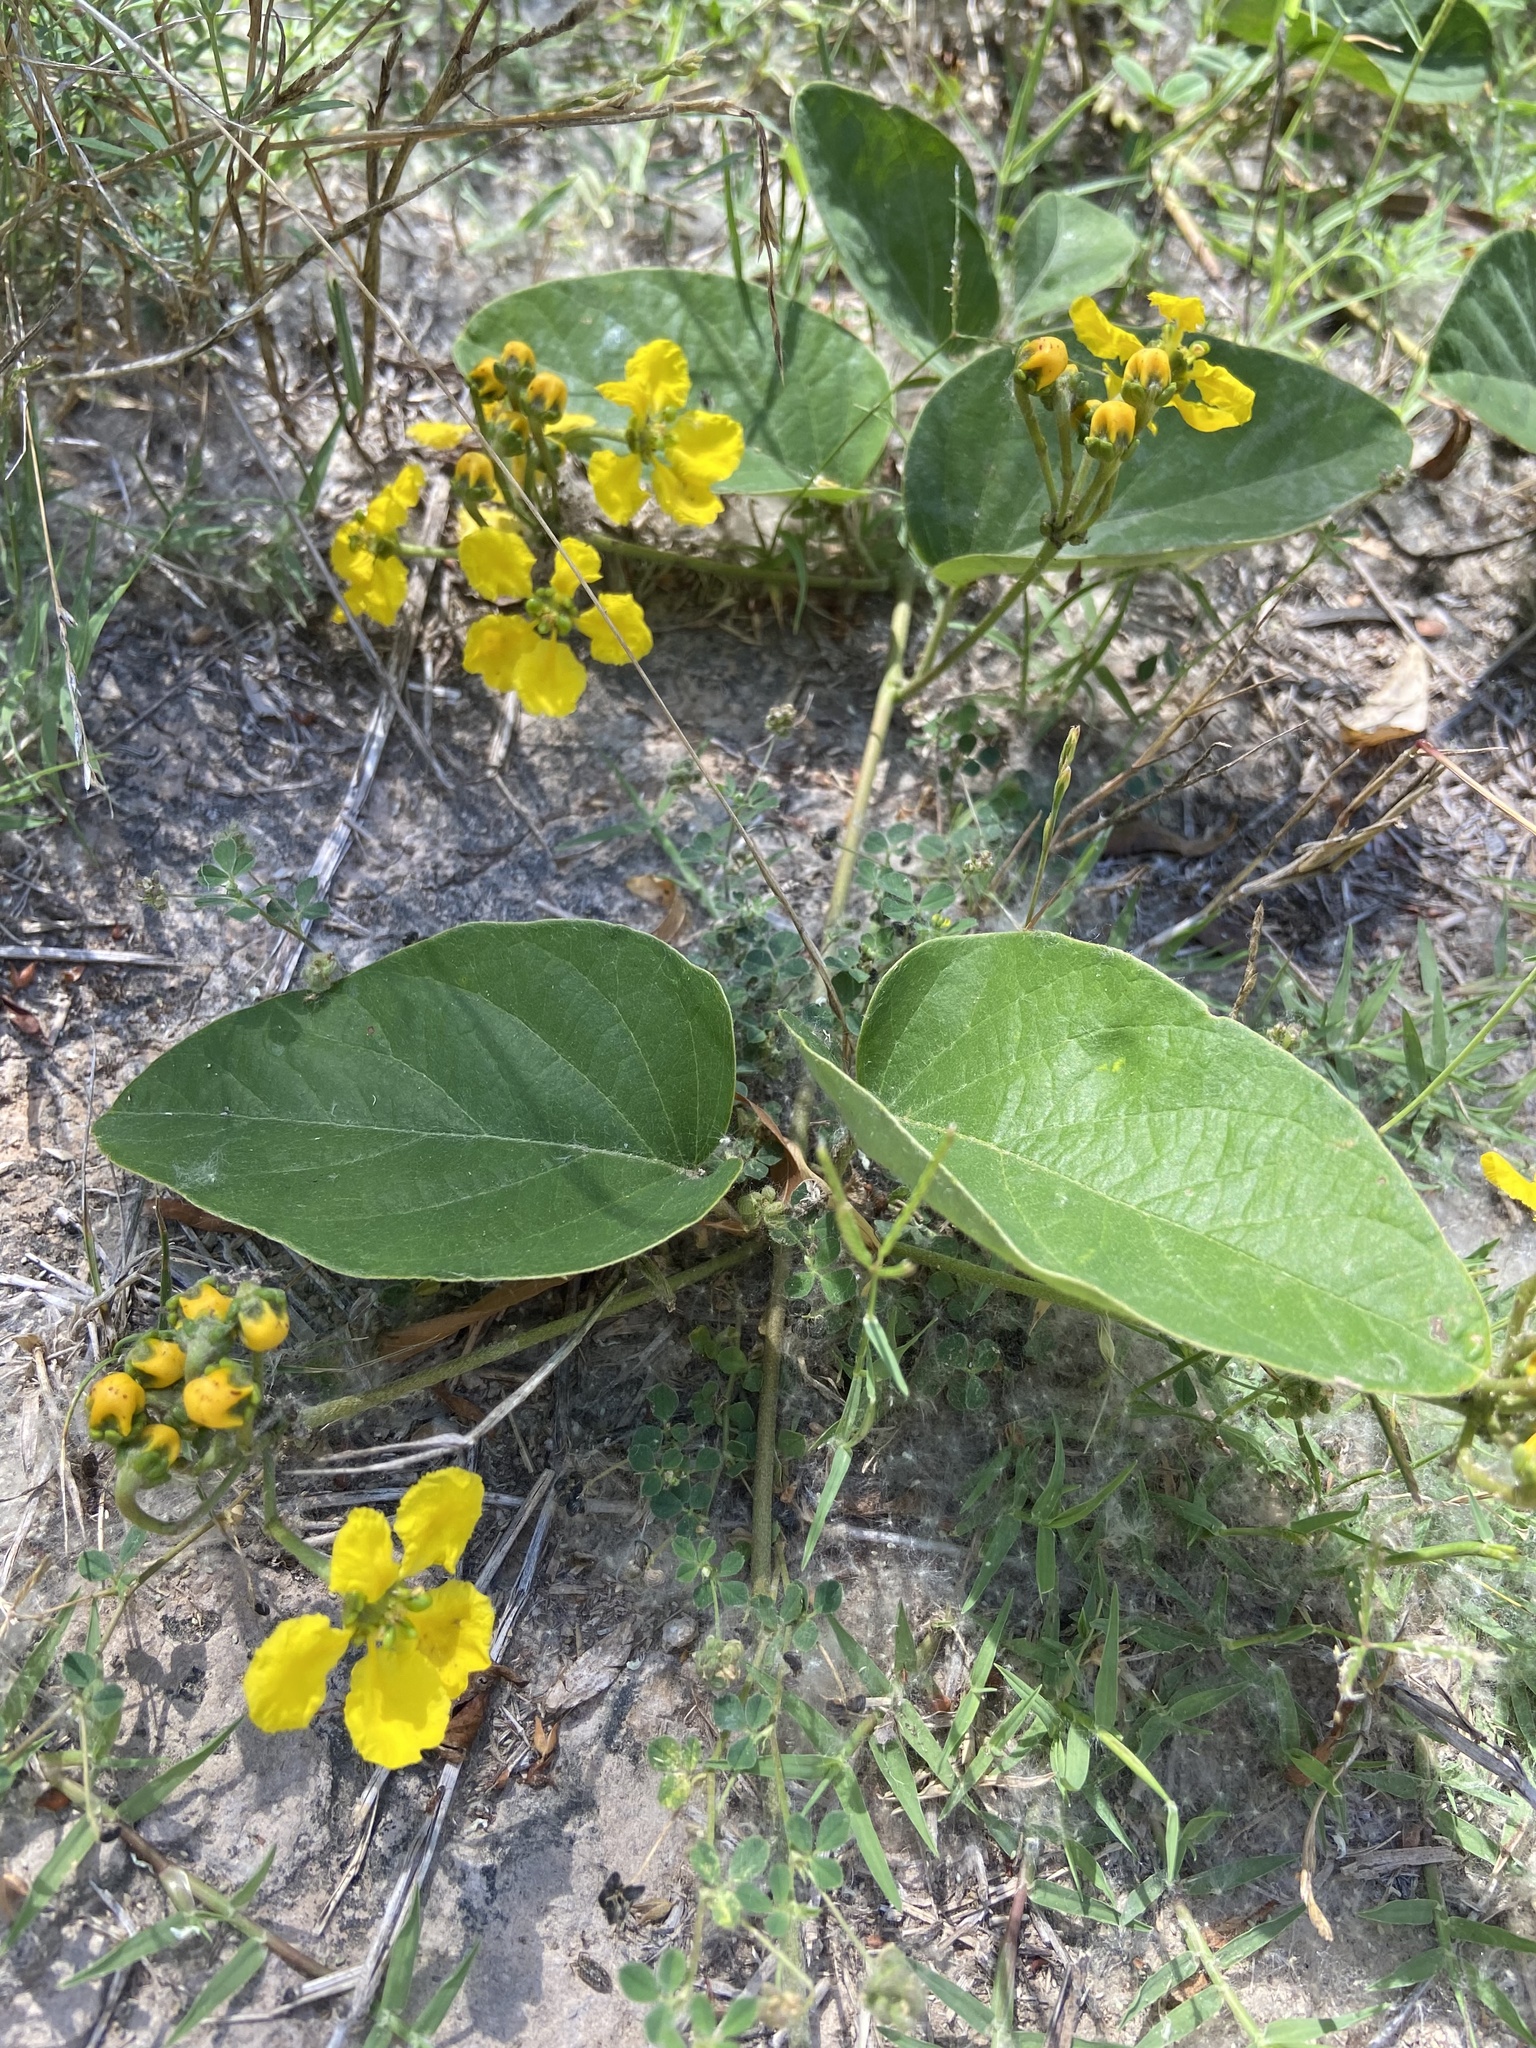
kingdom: Plantae
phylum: Tracheophyta
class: Magnoliopsida
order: Malpighiales
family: Malpighiaceae
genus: Stigmaphyllon
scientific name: Stigmaphyllon bonariense
